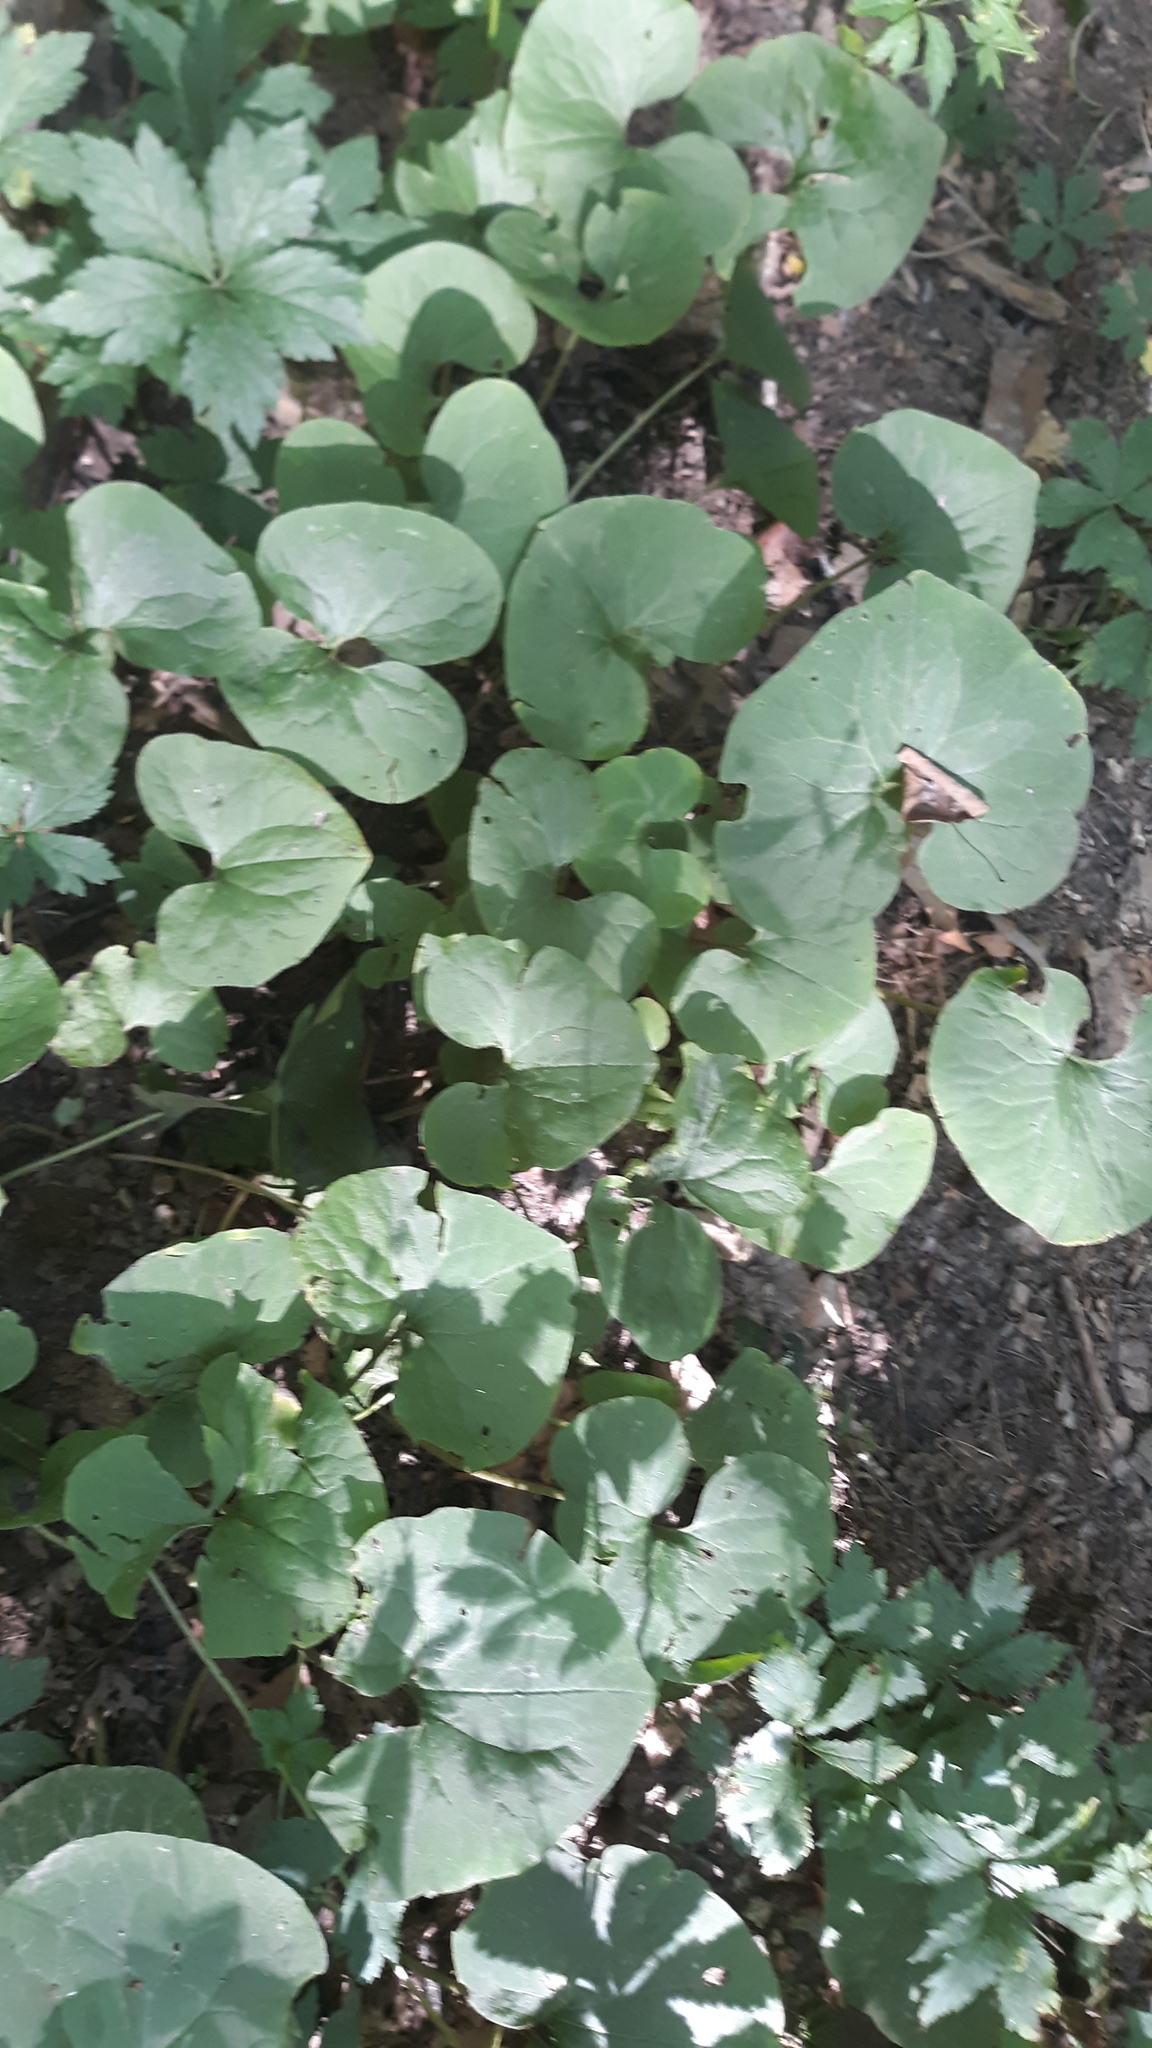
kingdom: Plantae
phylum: Tracheophyta
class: Magnoliopsida
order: Piperales
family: Aristolochiaceae
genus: Asarum
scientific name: Asarum canadense
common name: Wild ginger
